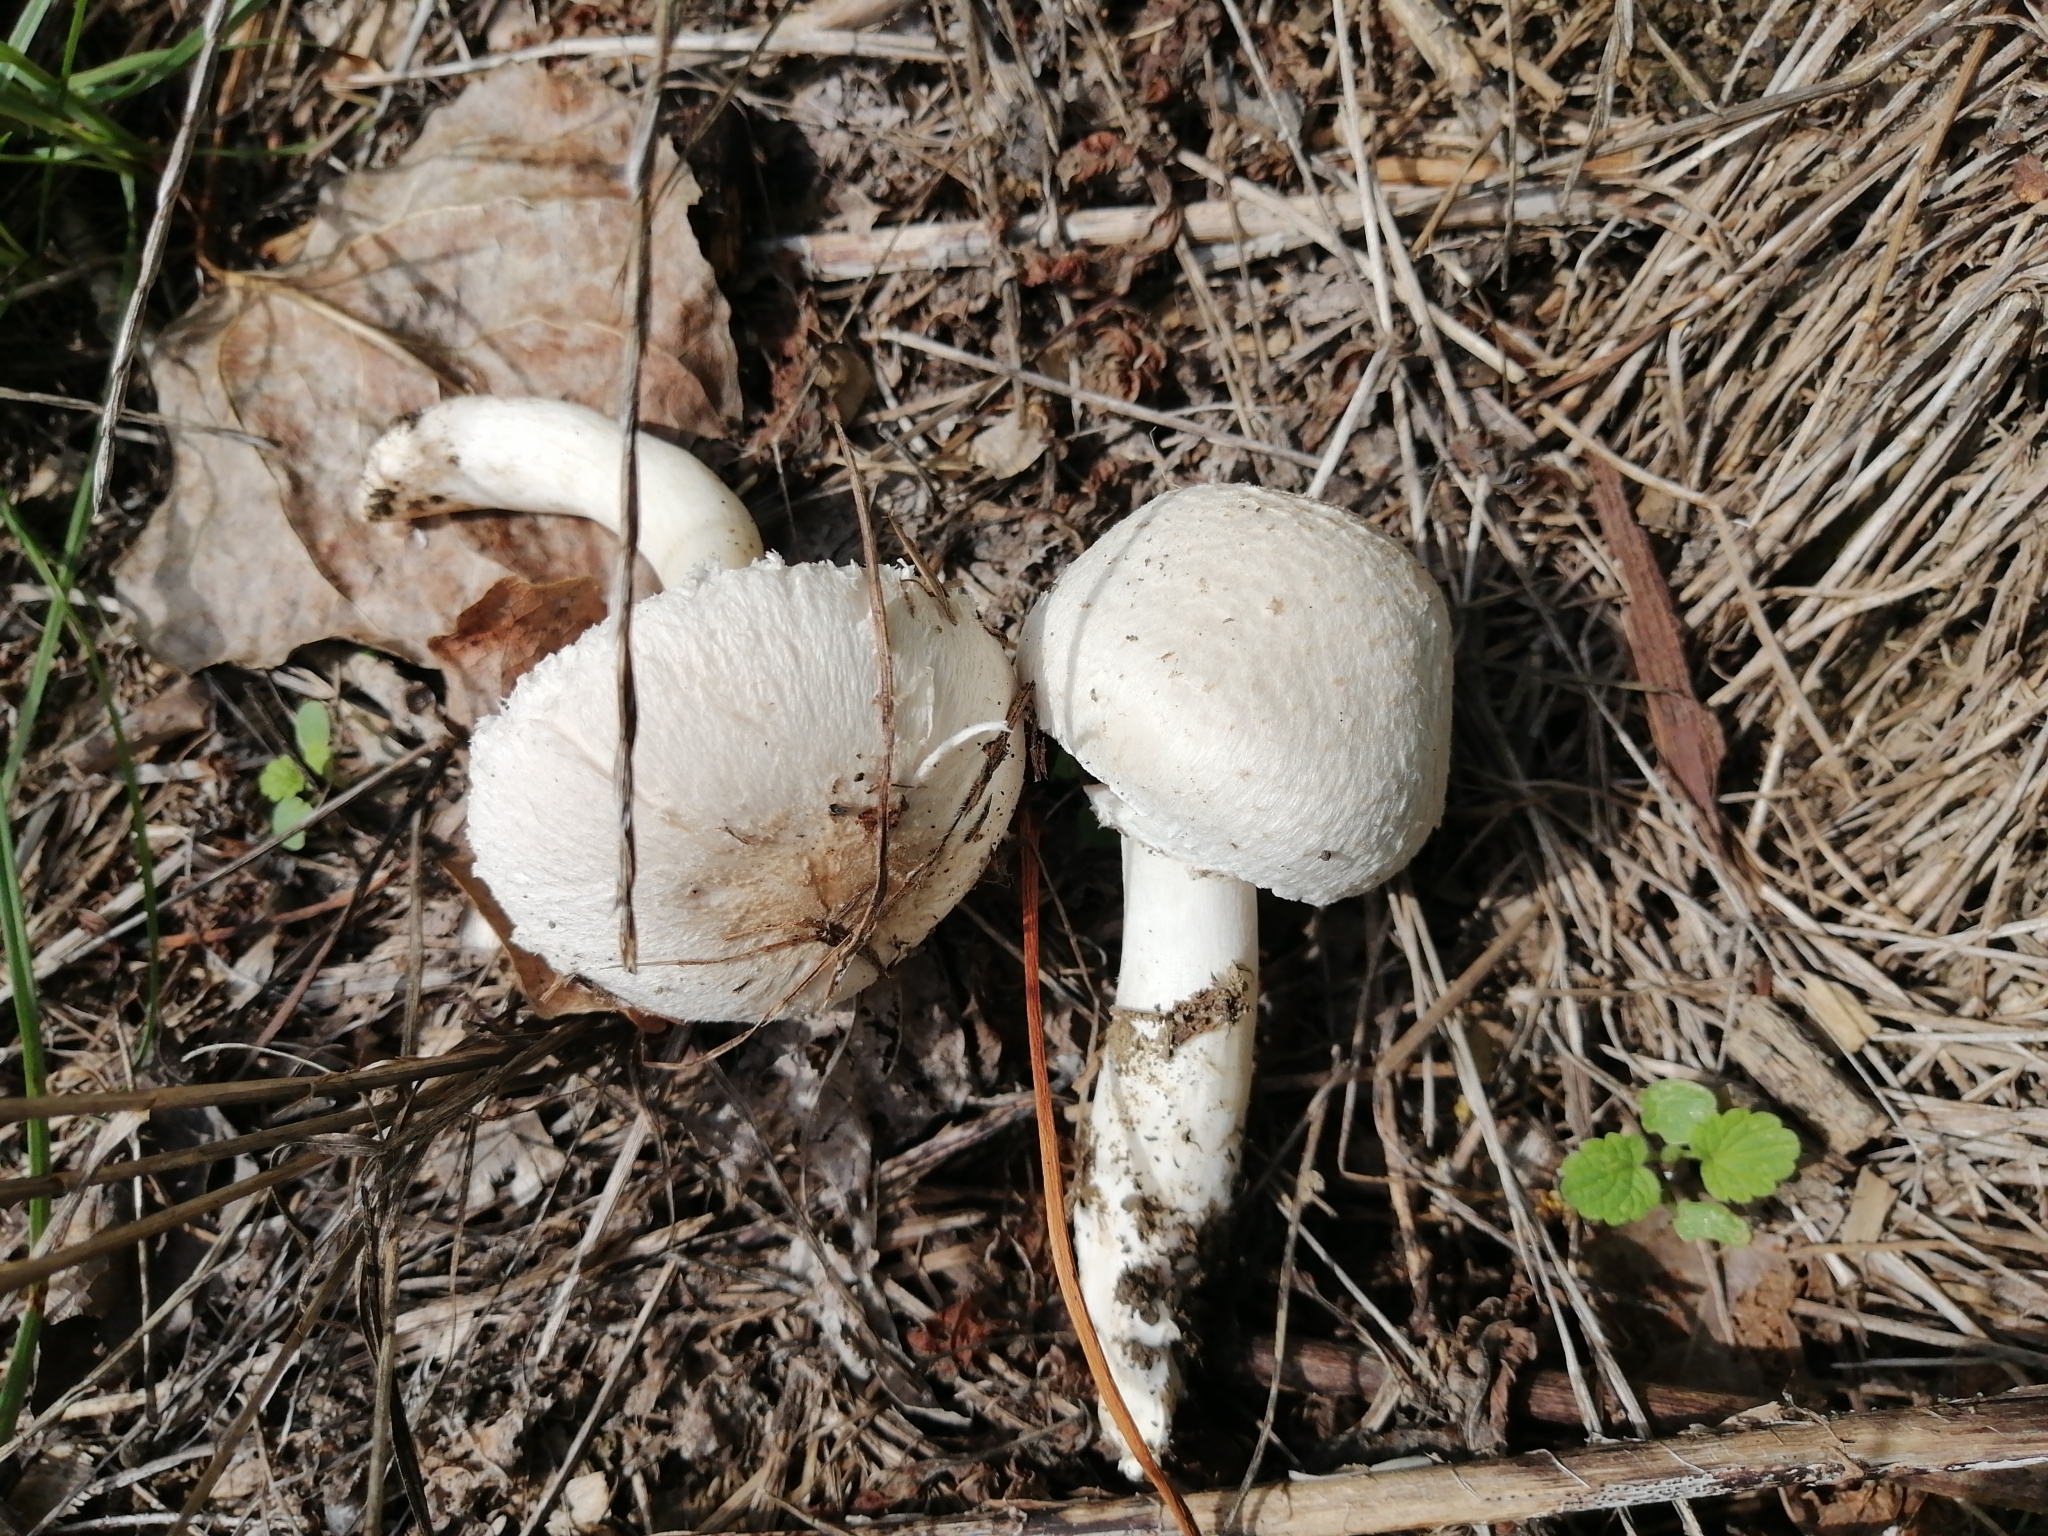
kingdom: Fungi
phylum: Basidiomycota
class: Agaricomycetes
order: Agaricales
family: Agaricaceae
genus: Leucoagaricus
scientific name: Leucoagaricus barssii
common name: Smoky dapperling
